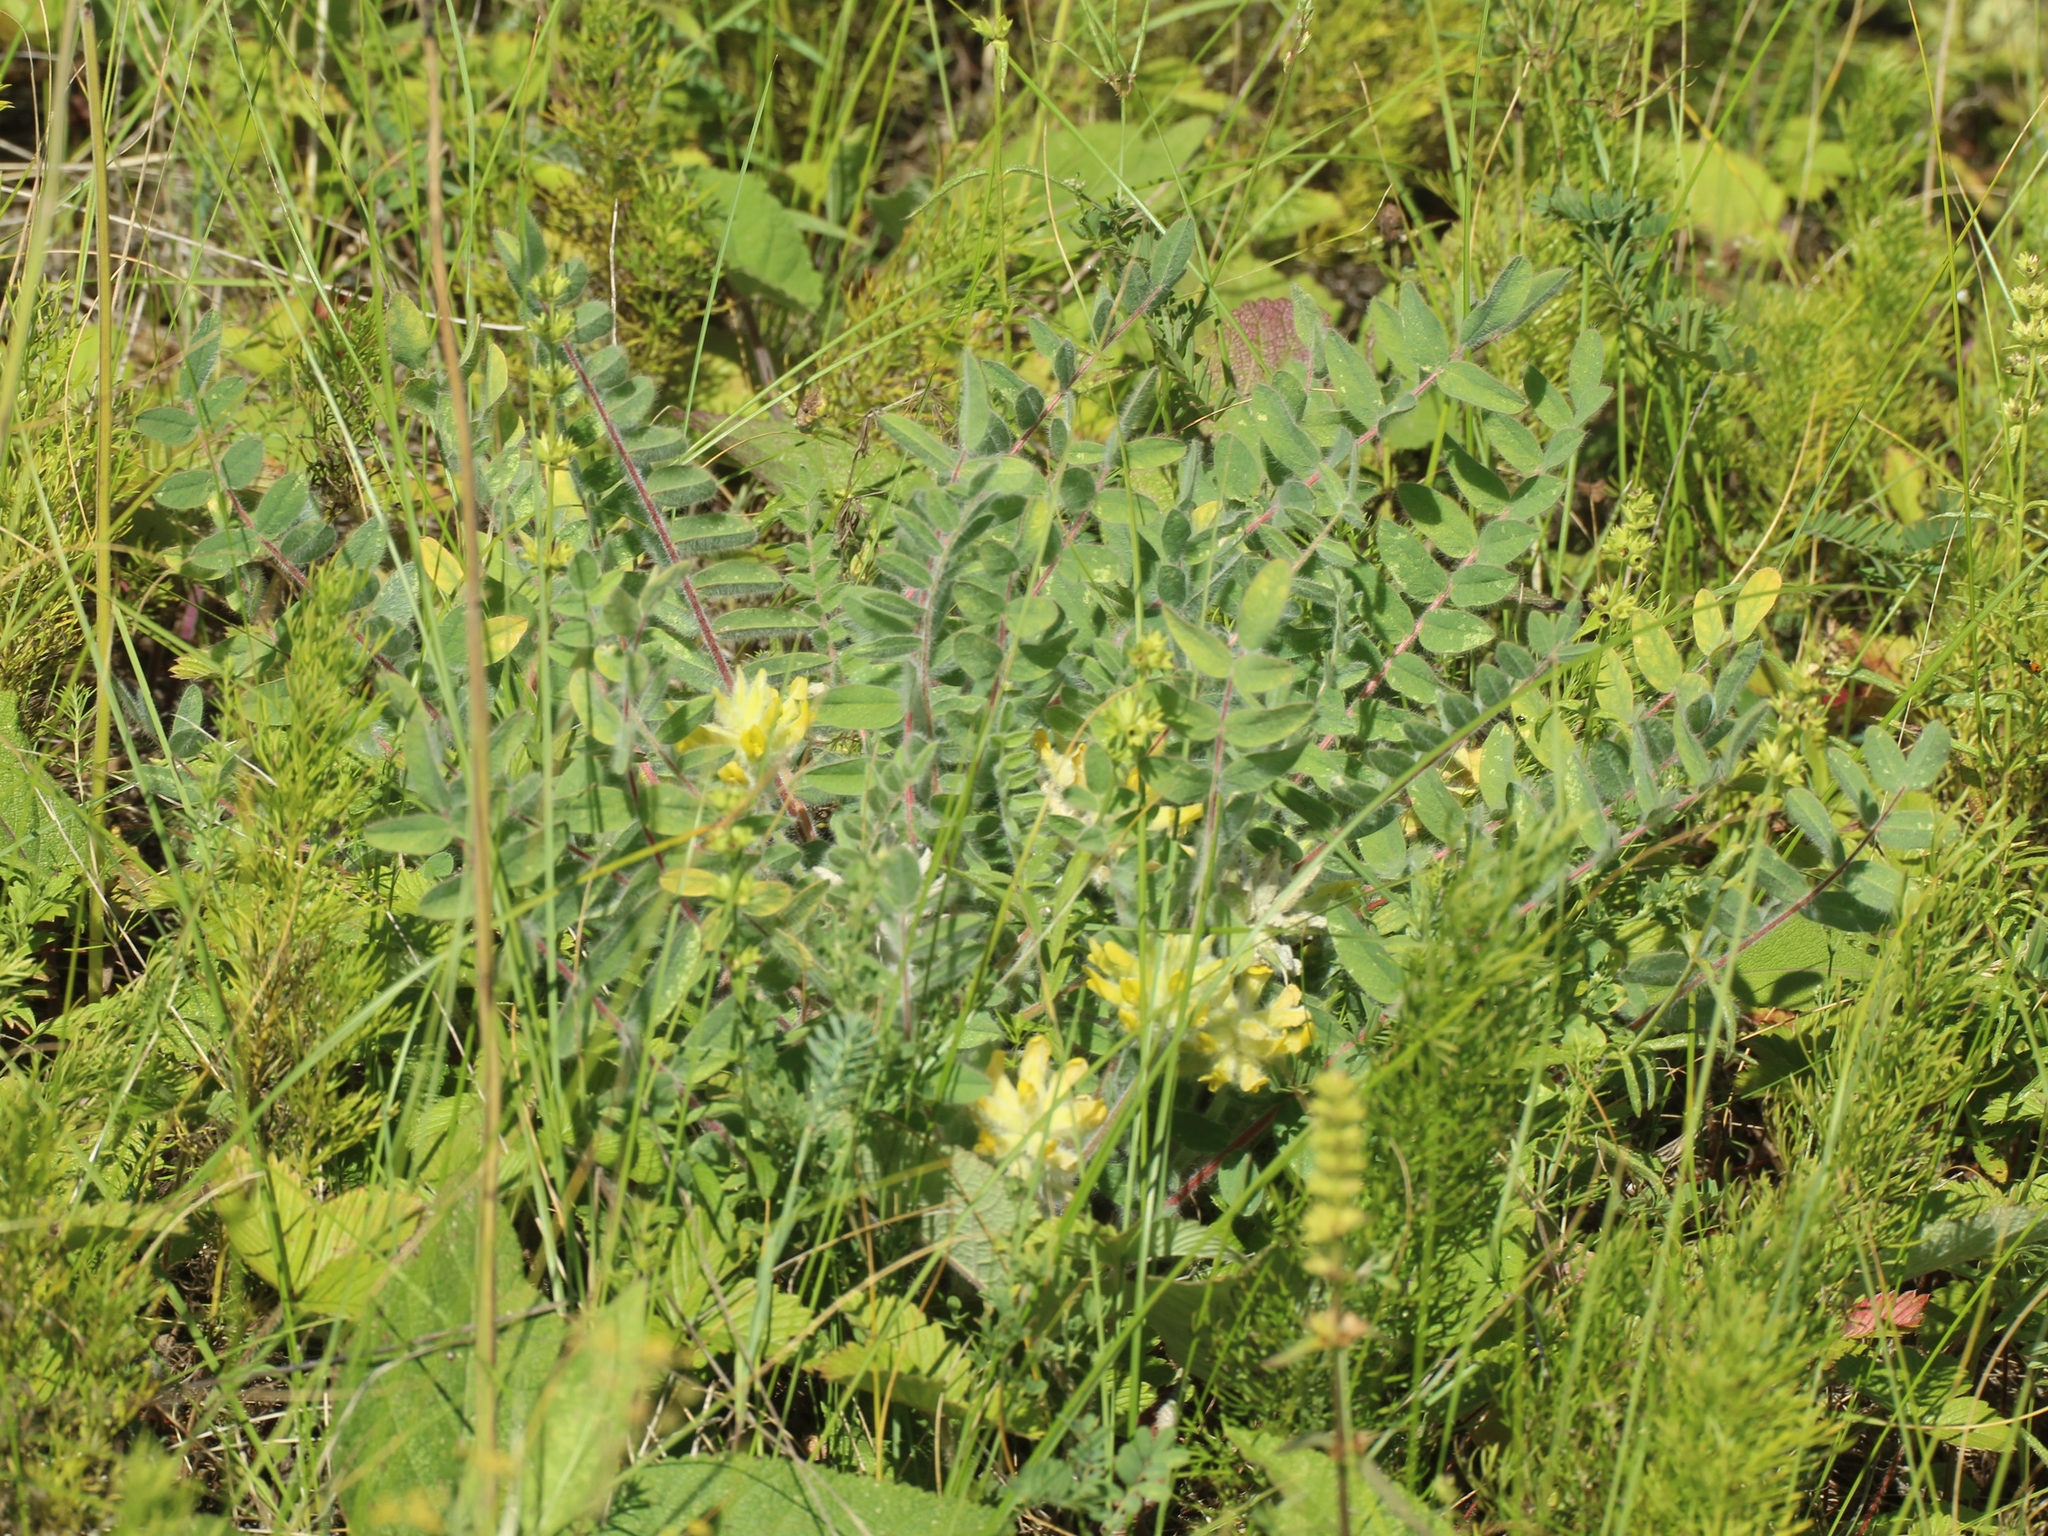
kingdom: Plantae
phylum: Tracheophyta
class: Magnoliopsida
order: Fabales
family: Fabaceae
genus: Astragalus
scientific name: Astragalus dasyanthus
